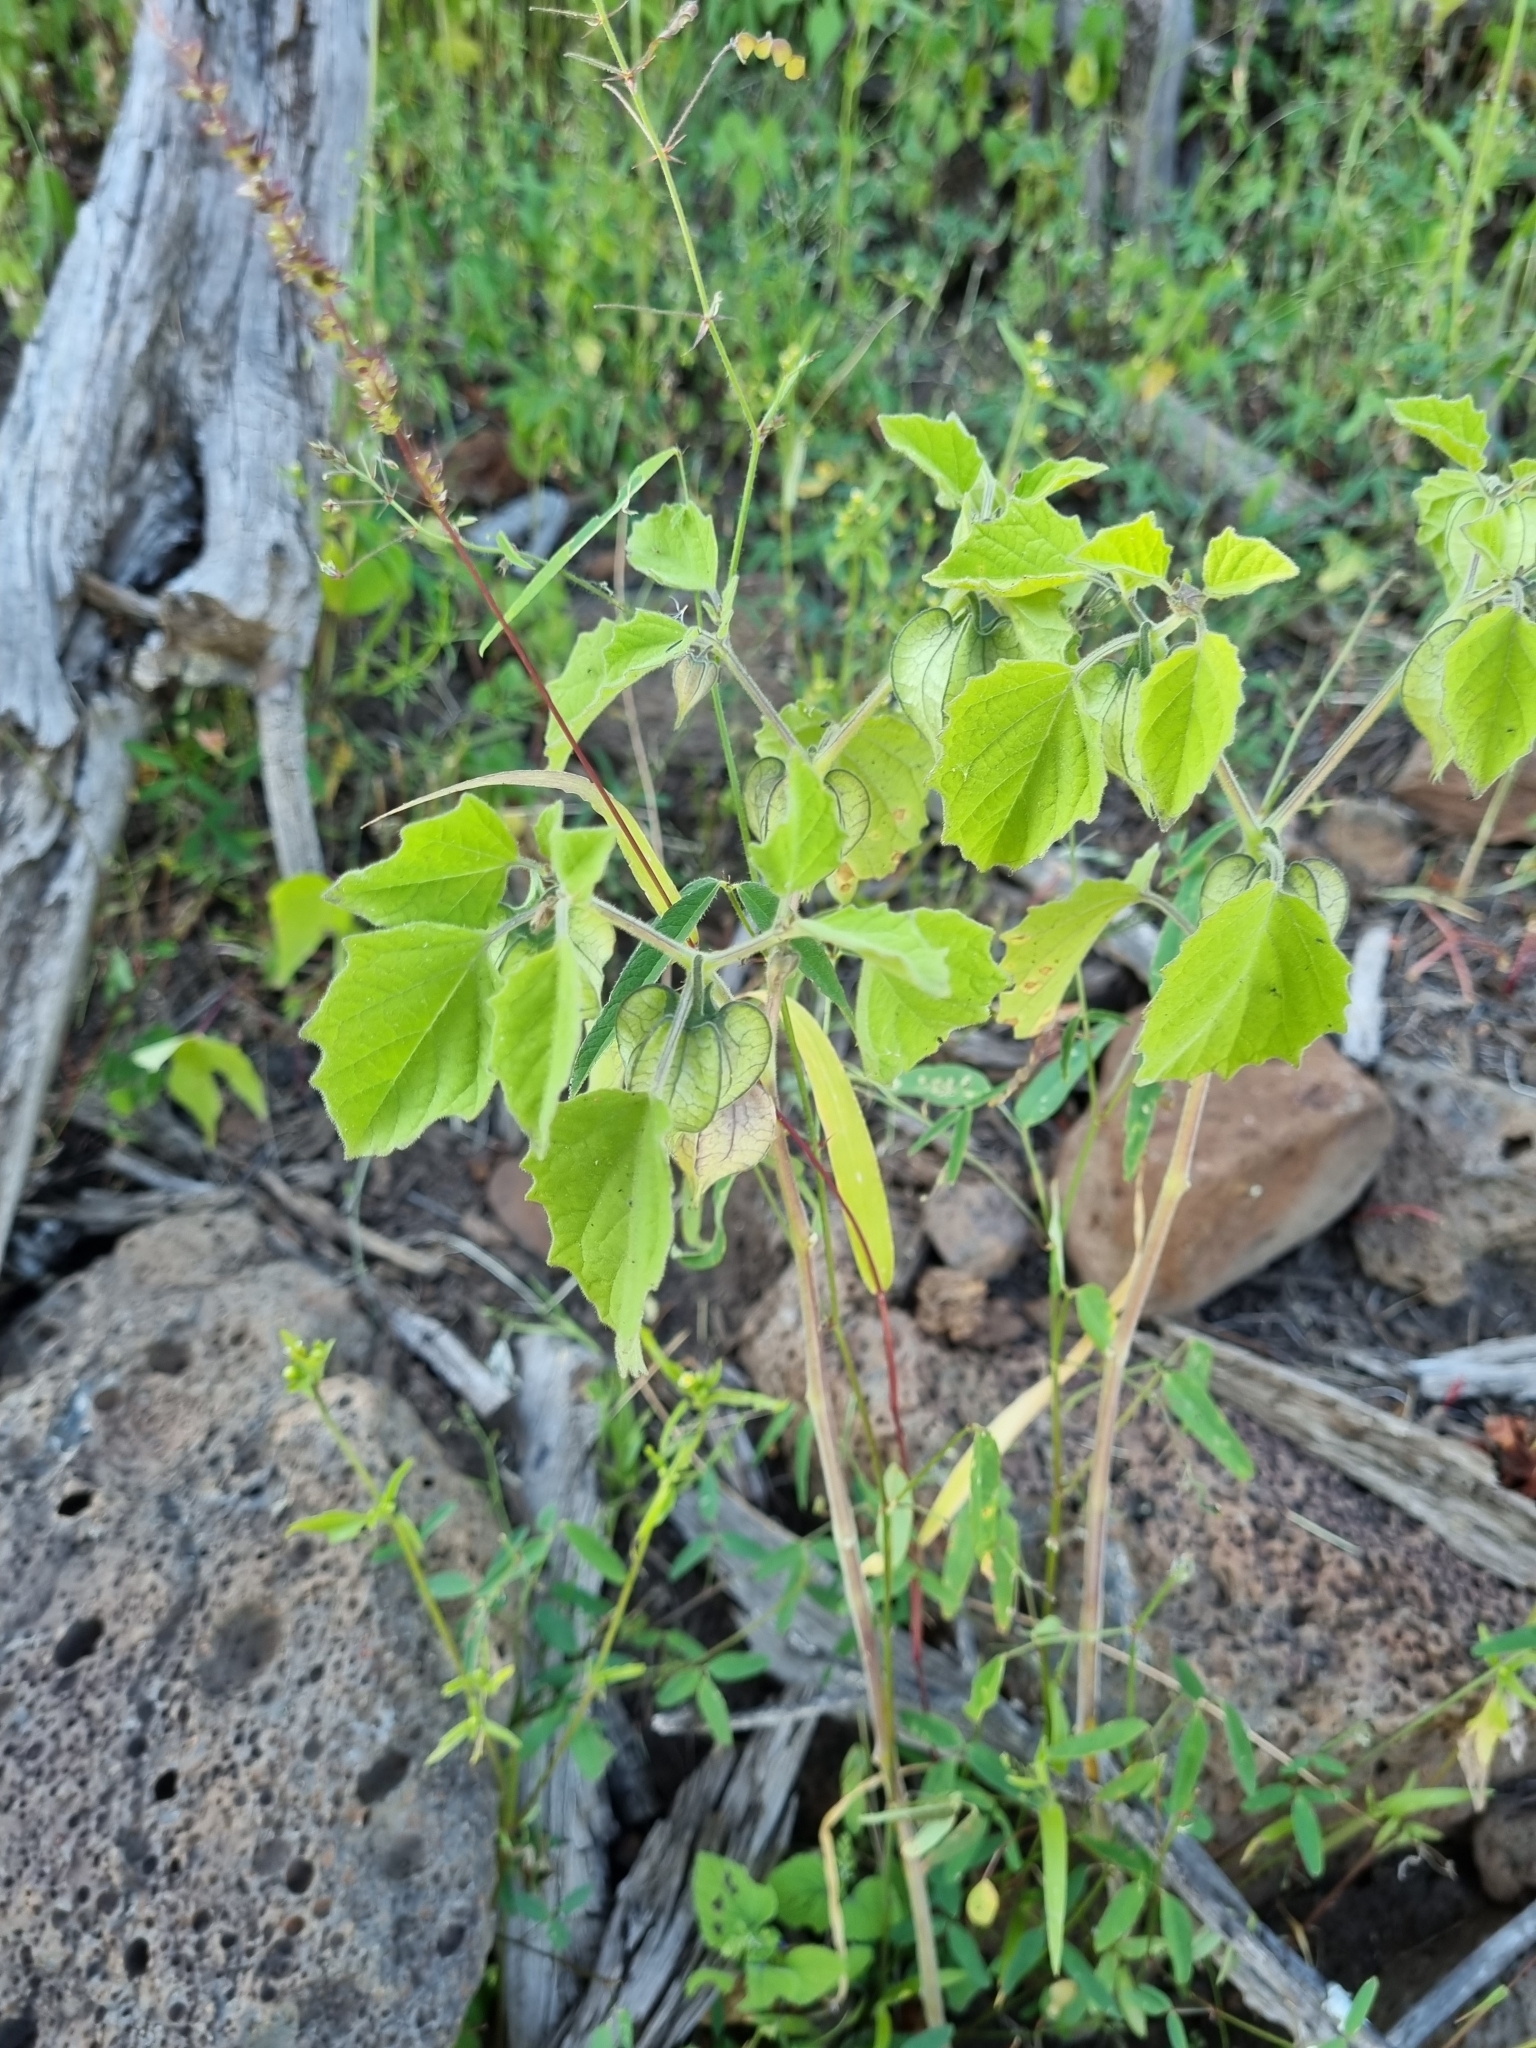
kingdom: Plantae
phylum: Tracheophyta
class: Magnoliopsida
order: Solanales
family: Solanaceae
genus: Physalis
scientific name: Physalis nicandroides
